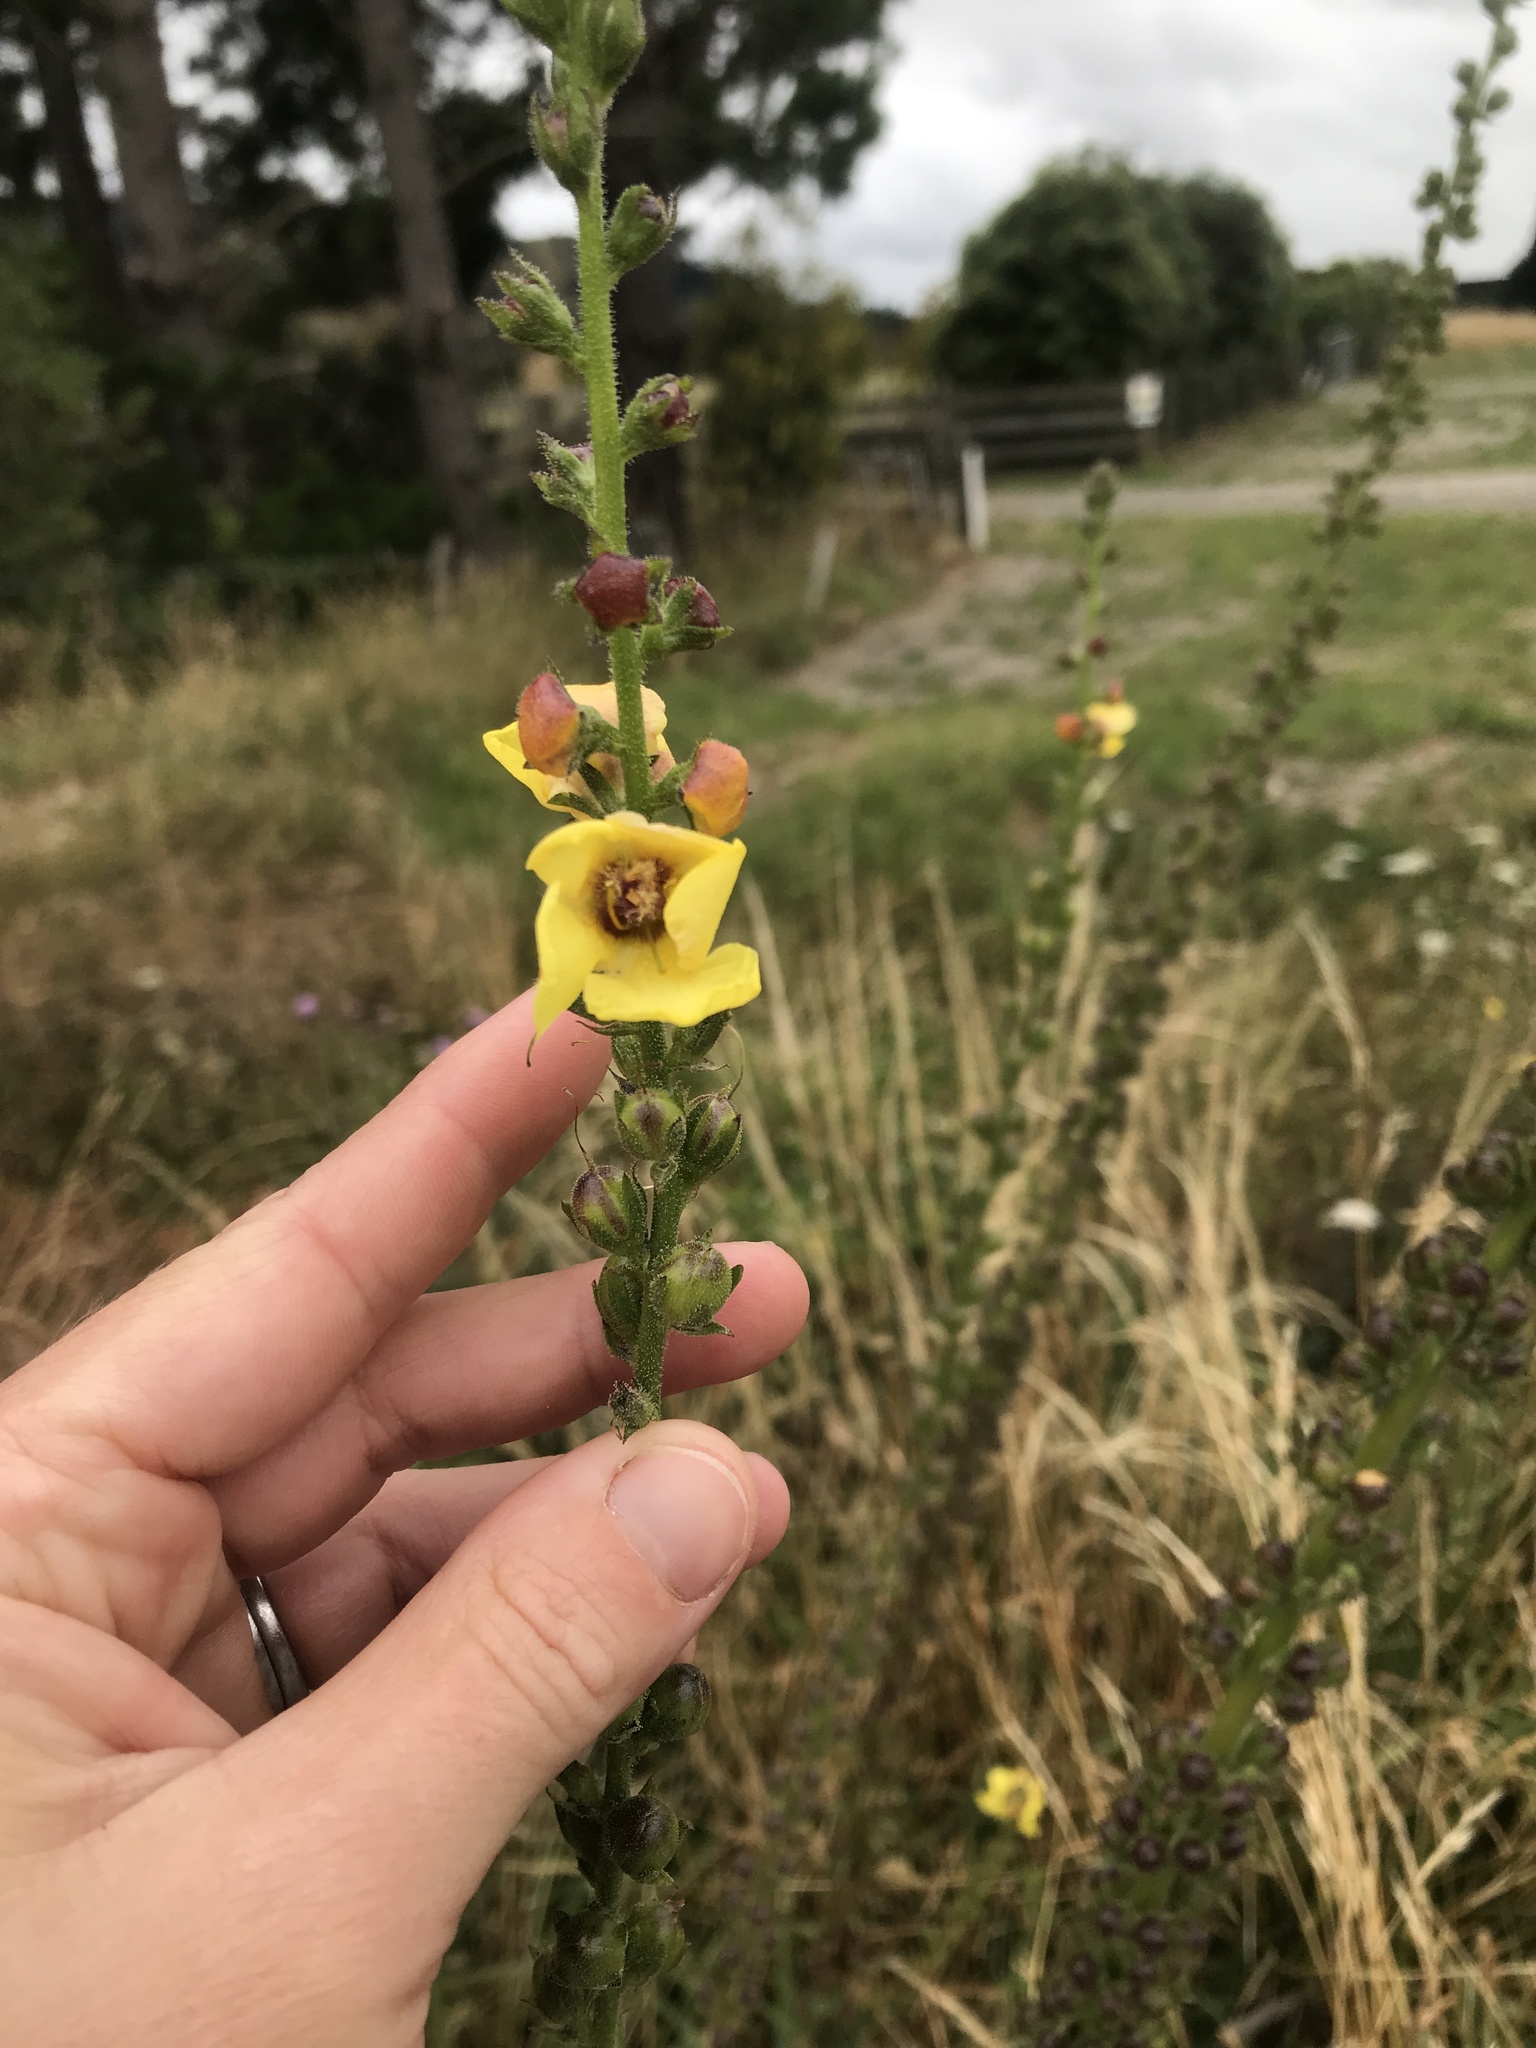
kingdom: Plantae
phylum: Tracheophyta
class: Magnoliopsida
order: Lamiales
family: Scrophulariaceae
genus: Verbascum
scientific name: Verbascum virgatum
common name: Twiggy mullein
